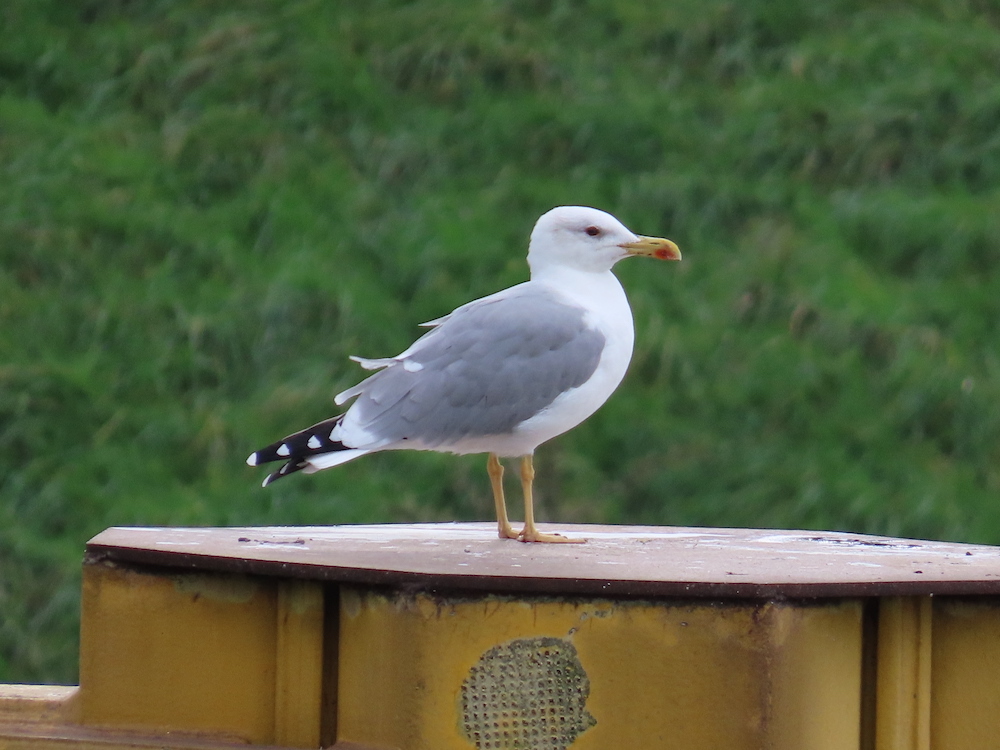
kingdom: Animalia
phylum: Chordata
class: Aves
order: Charadriiformes
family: Laridae
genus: Larus
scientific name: Larus michahellis
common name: Yellow-legged gull
